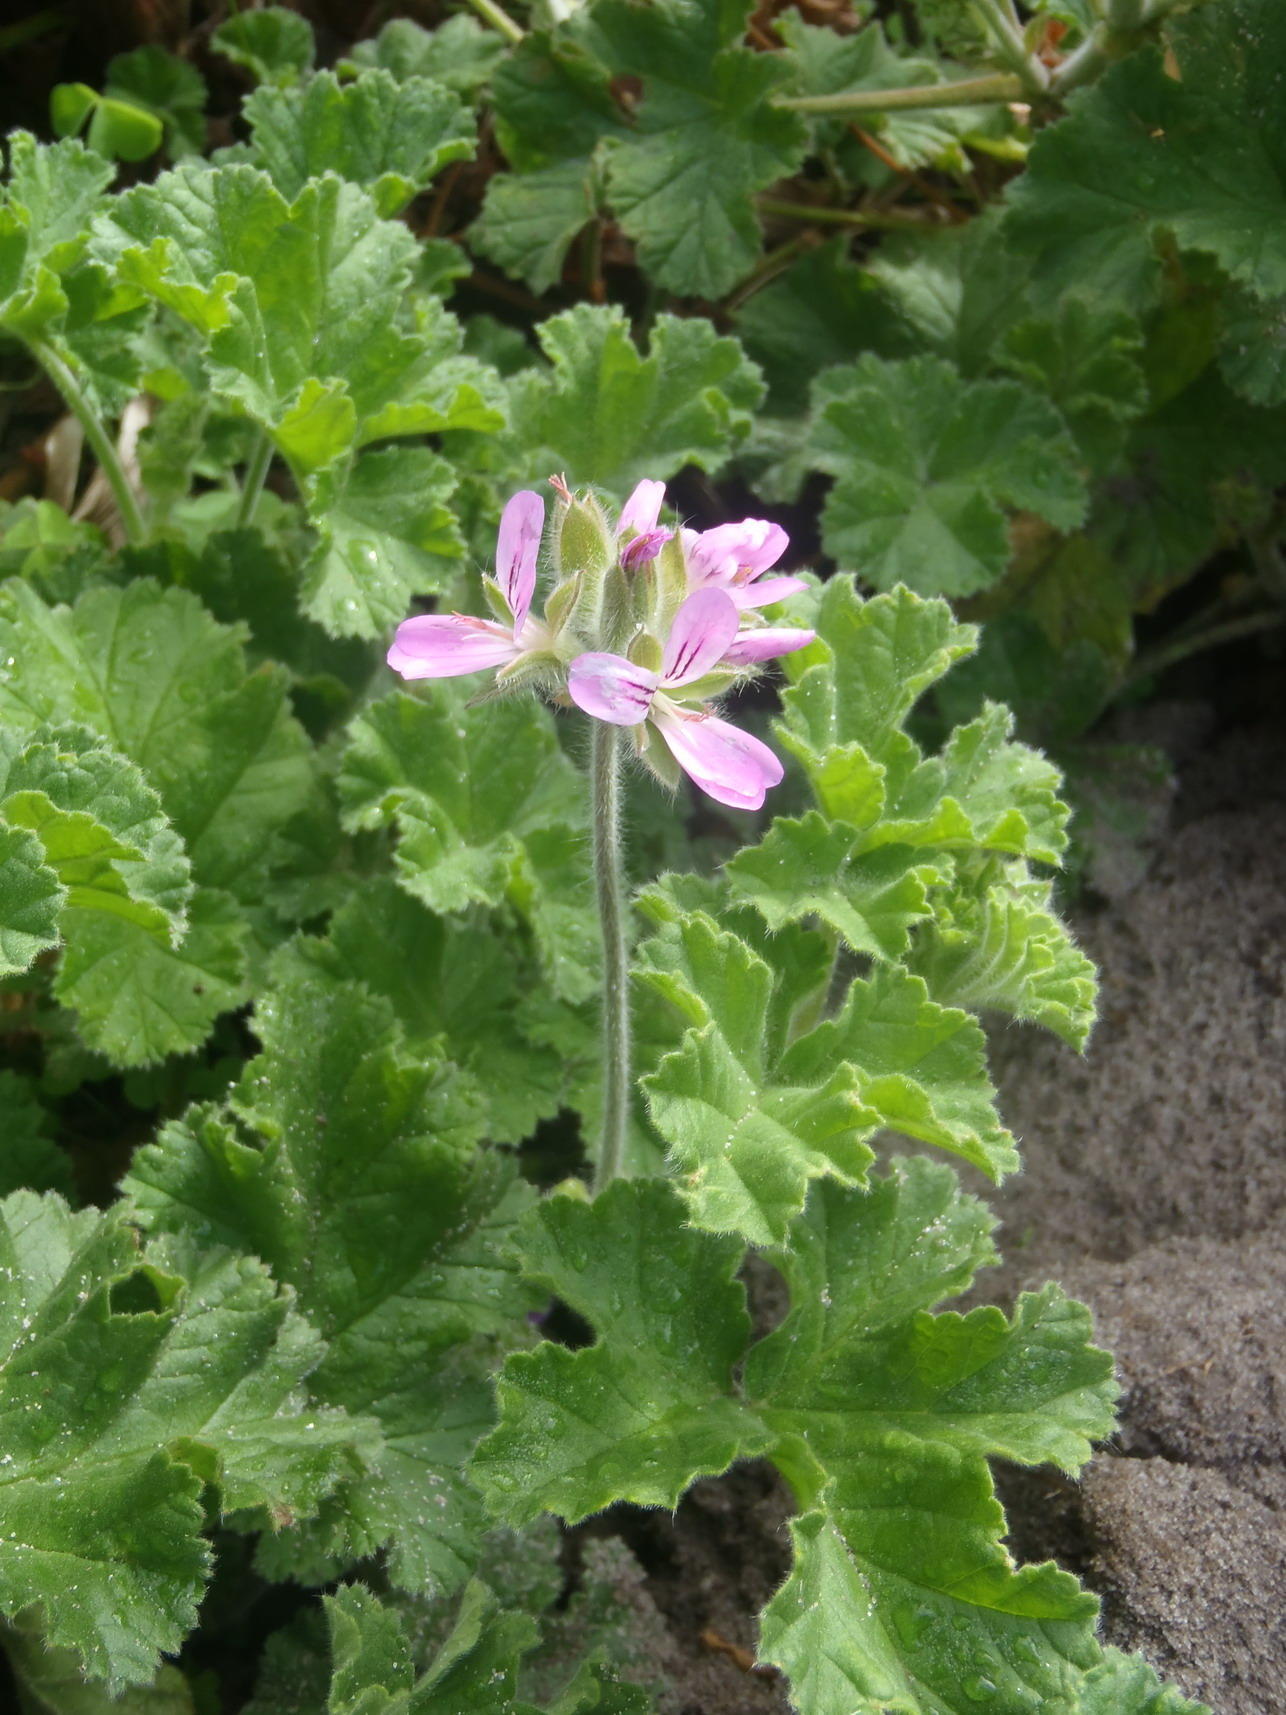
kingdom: Plantae
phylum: Tracheophyta
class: Magnoliopsida
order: Geraniales
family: Geraniaceae
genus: Pelargonium
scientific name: Pelargonium capitatum
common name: Rose scented geranium
